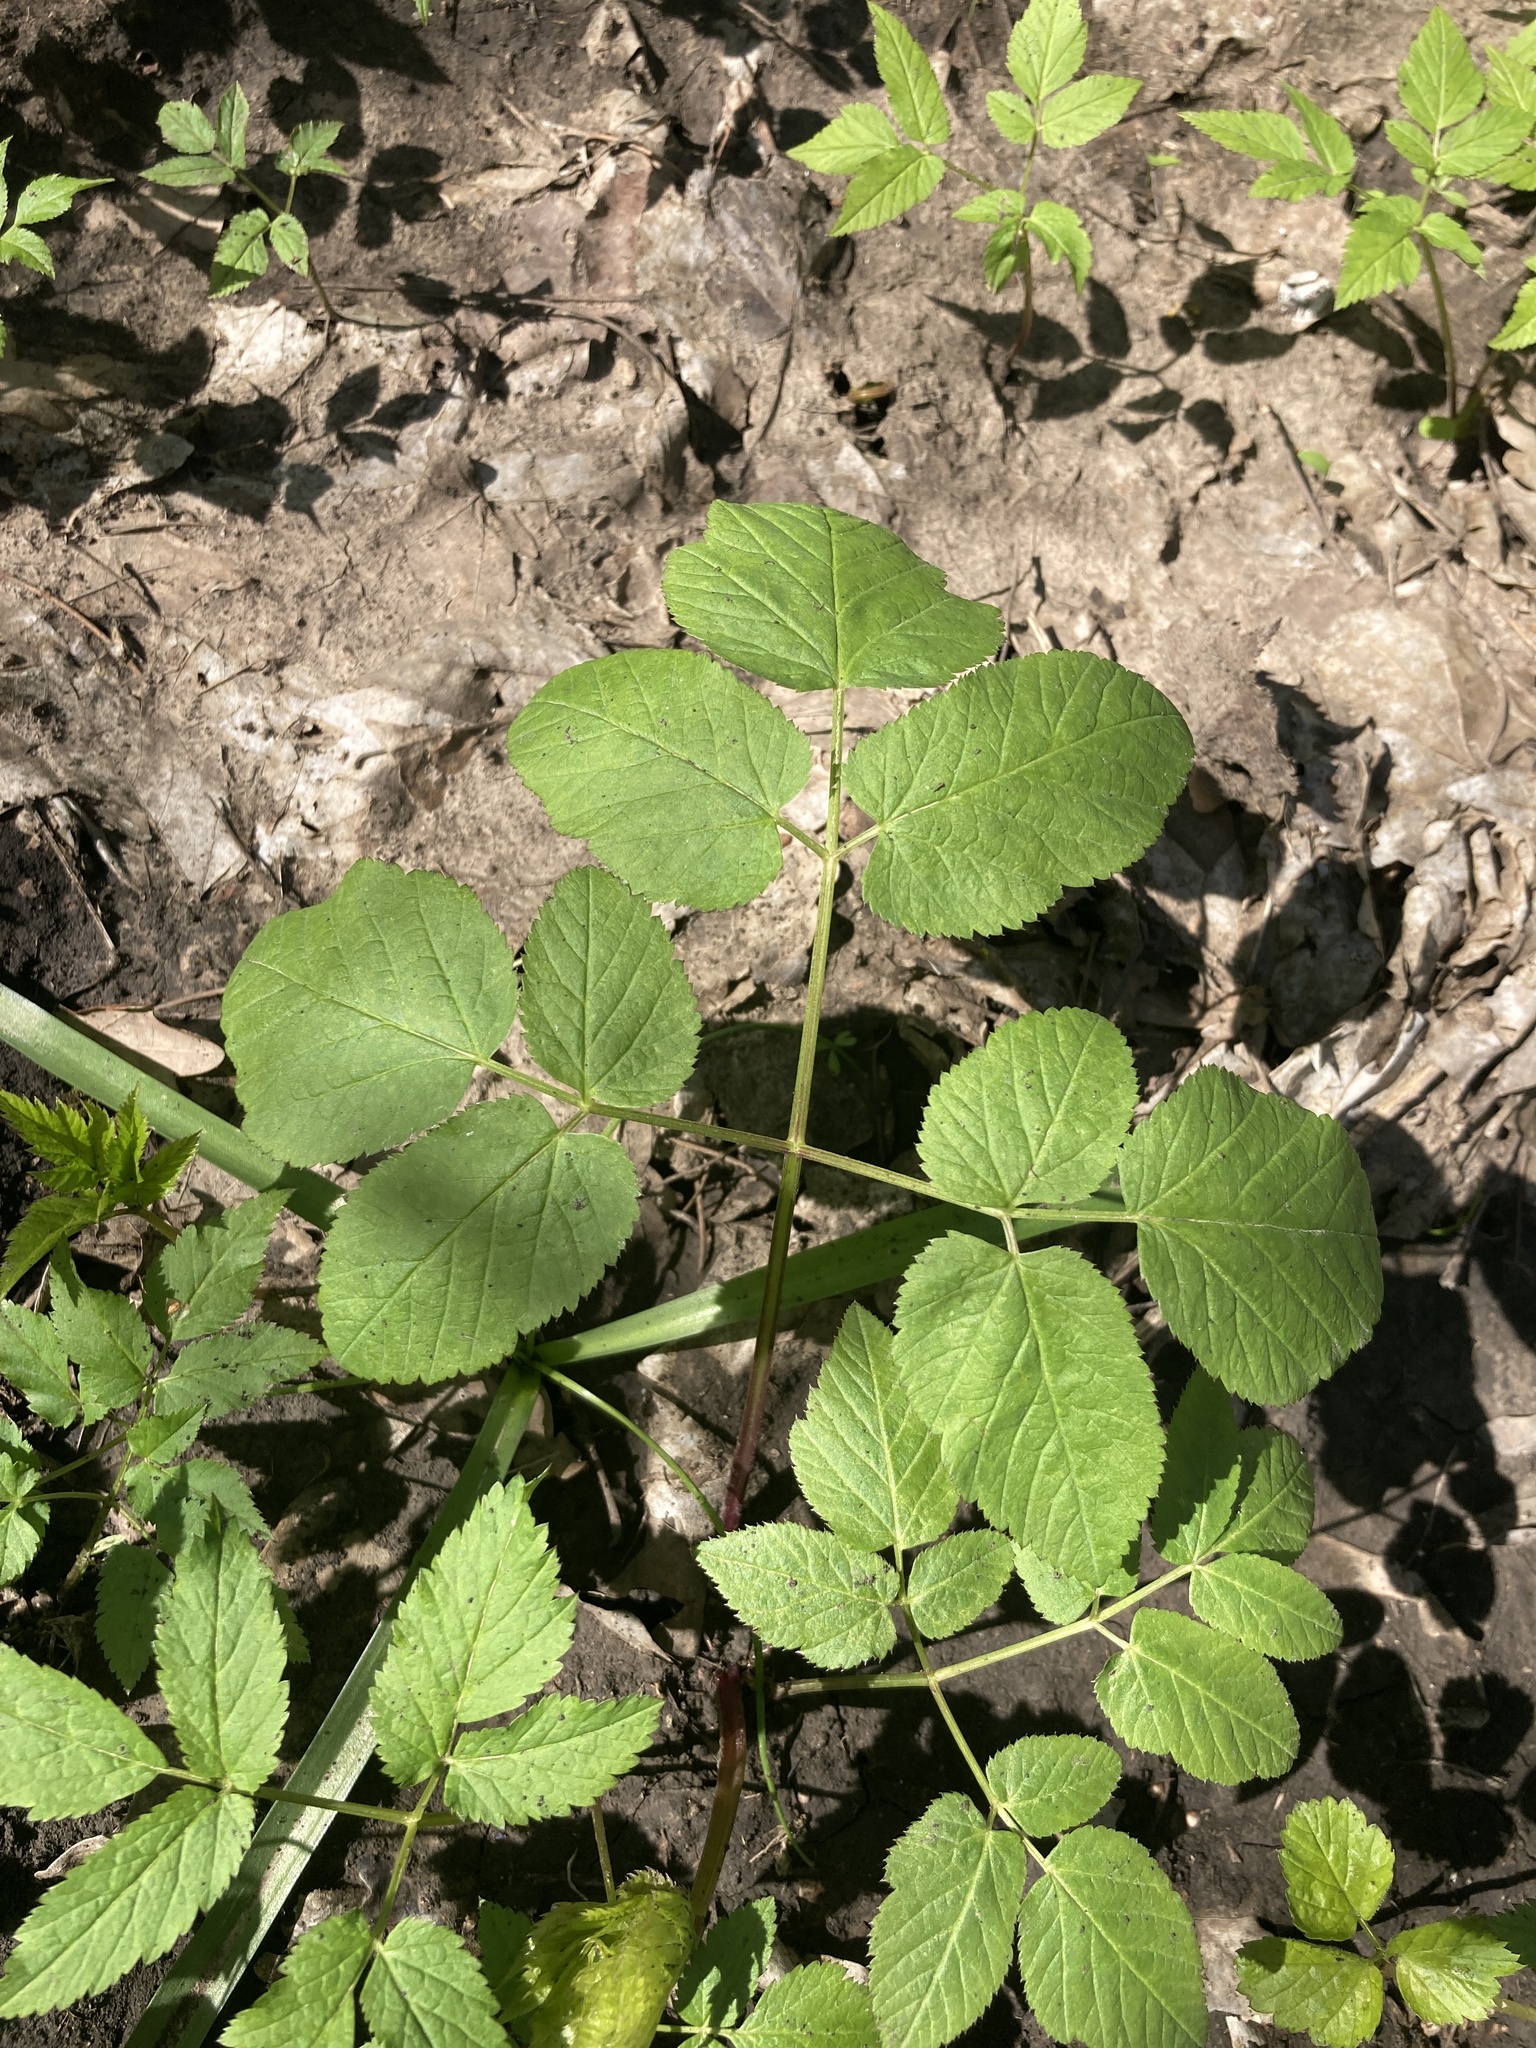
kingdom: Plantae
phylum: Tracheophyta
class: Magnoliopsida
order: Apiales
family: Apiaceae
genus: Aegopodium
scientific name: Aegopodium podagraria
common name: Ground-elder
